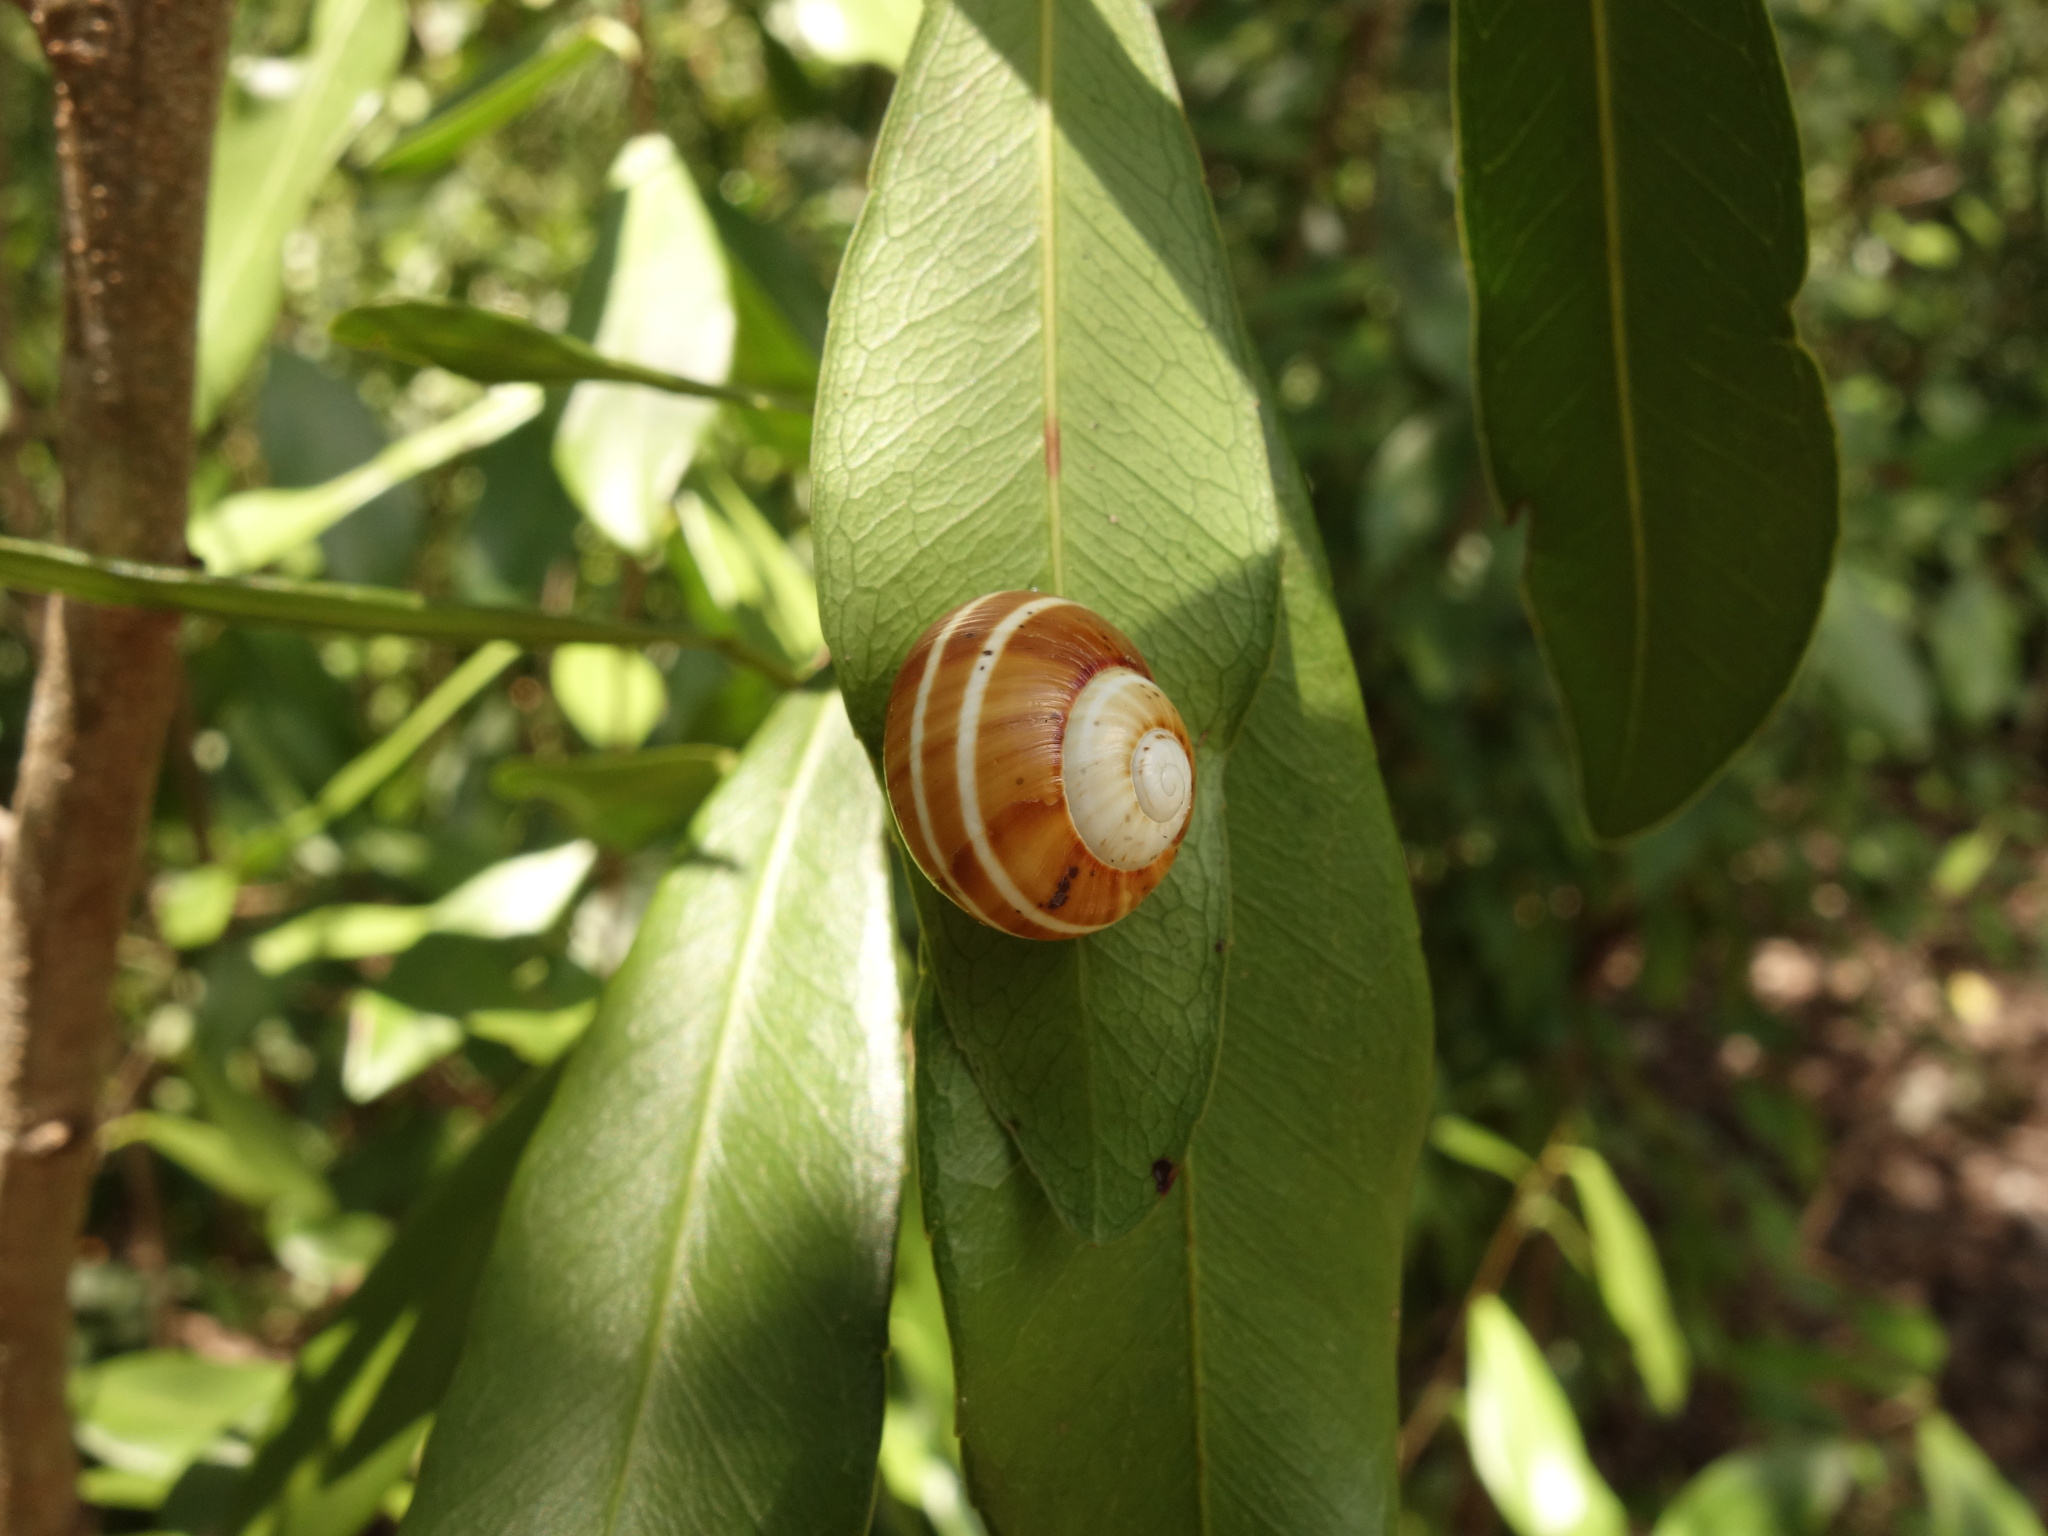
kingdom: Animalia
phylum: Mollusca
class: Gastropoda
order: Stylommatophora
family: Cepolidae
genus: Polymita
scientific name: Polymita muscarum
